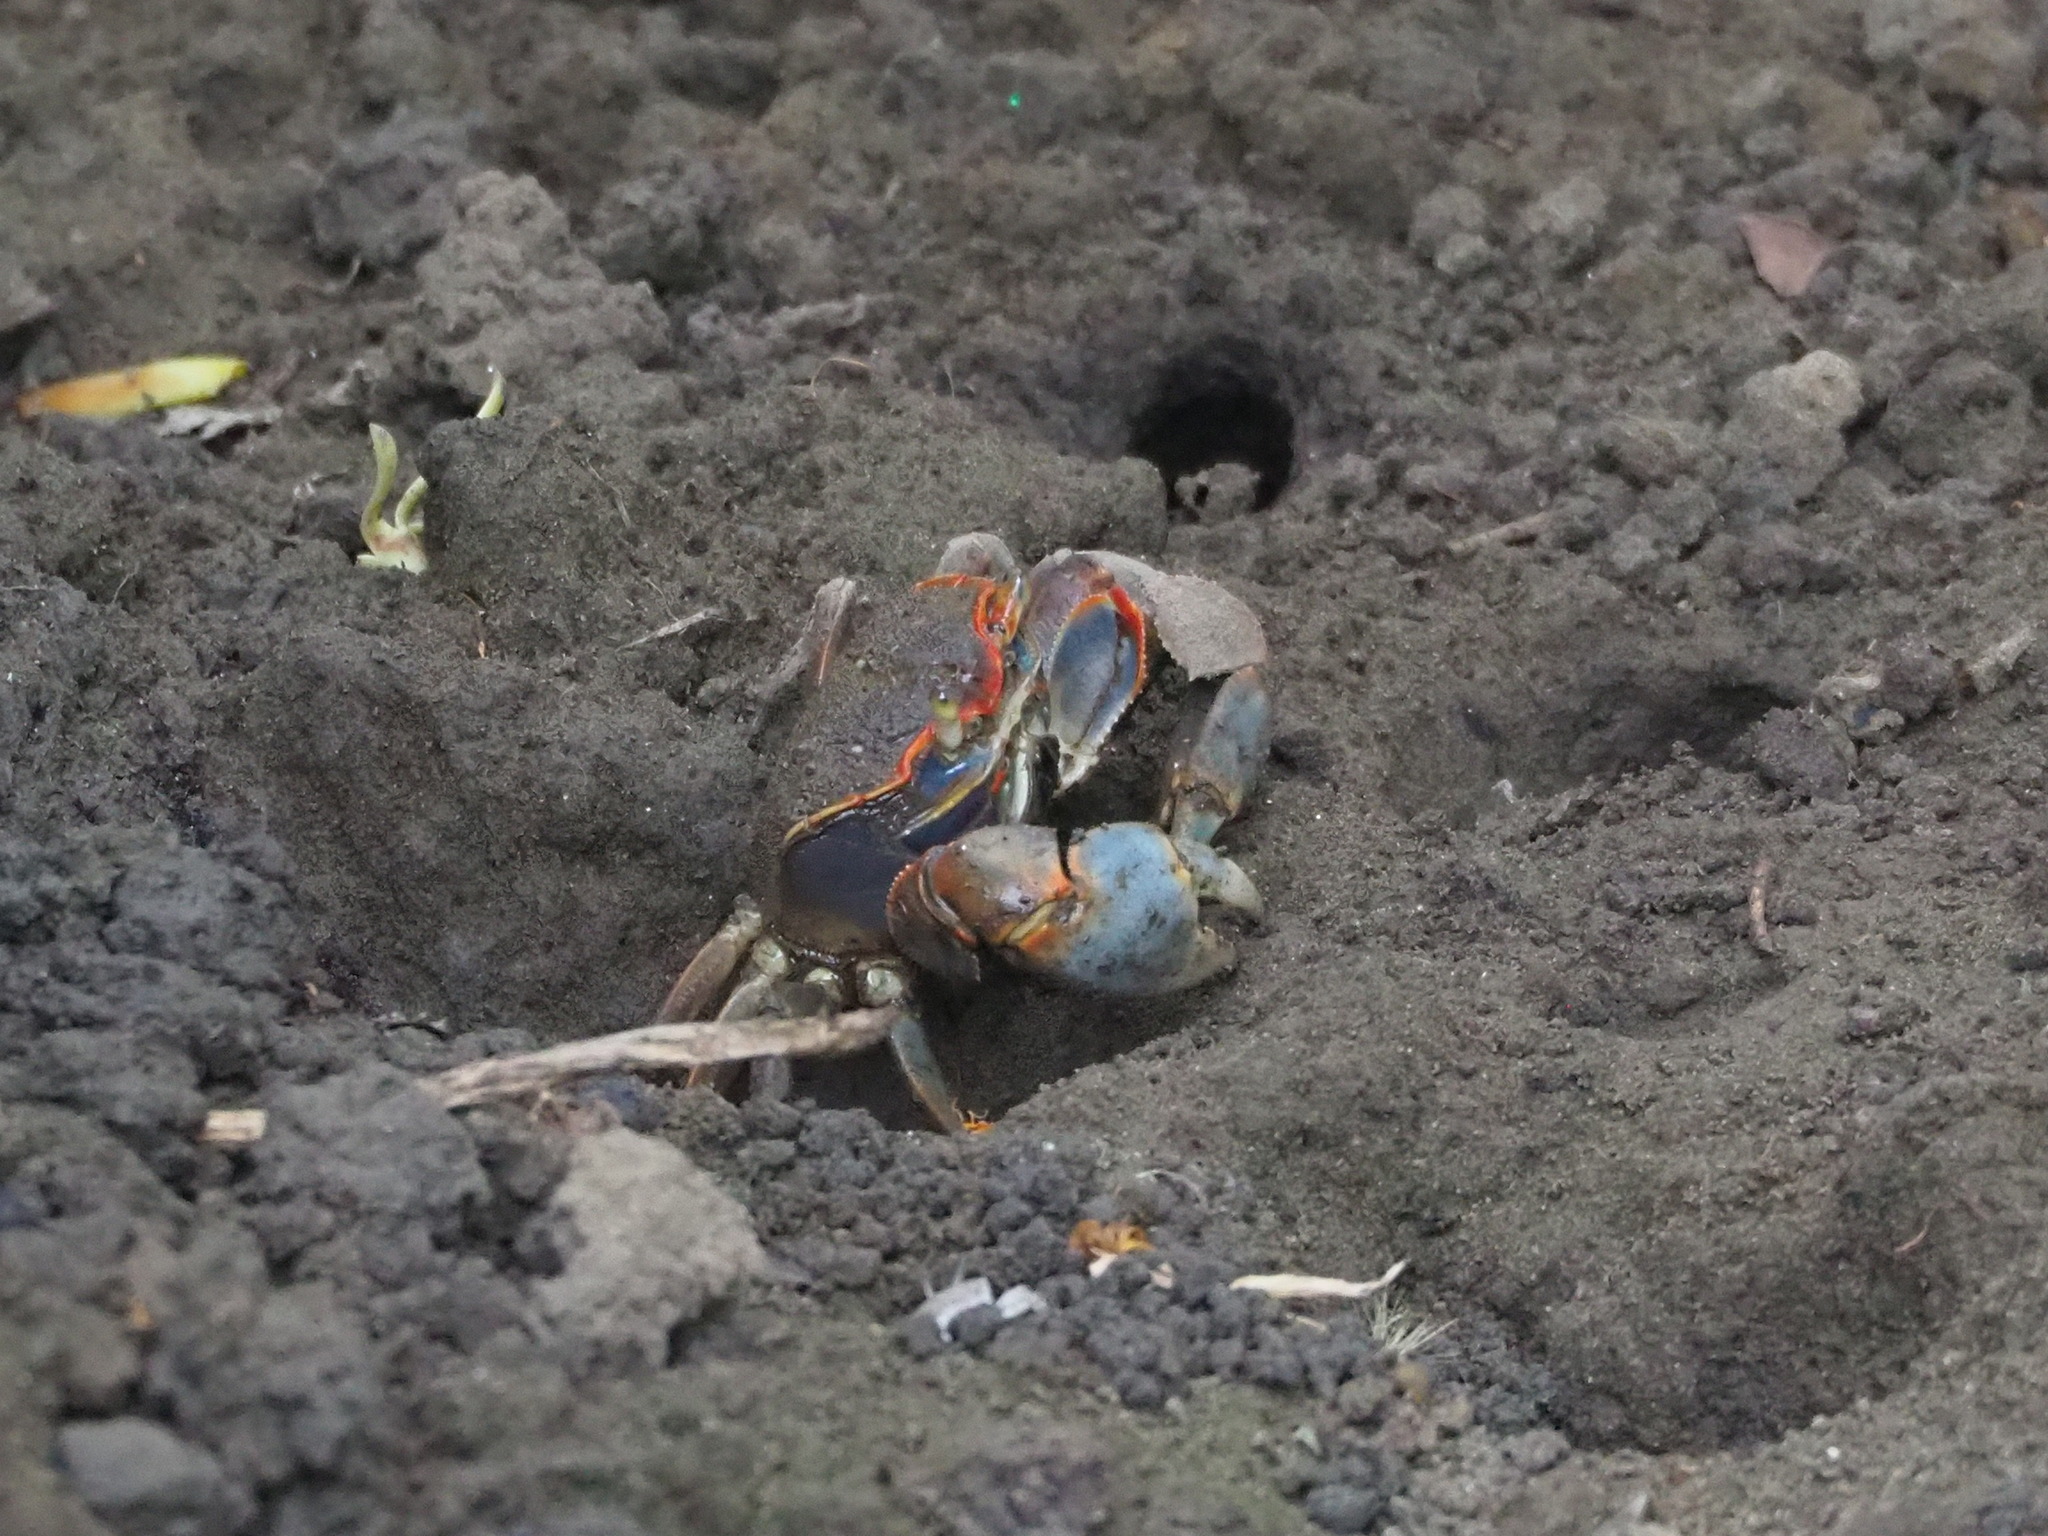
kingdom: Animalia
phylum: Arthropoda
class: Malacostraca
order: Decapoda
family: Varunidae
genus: Chasmagnathus
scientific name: Chasmagnathus convexus
